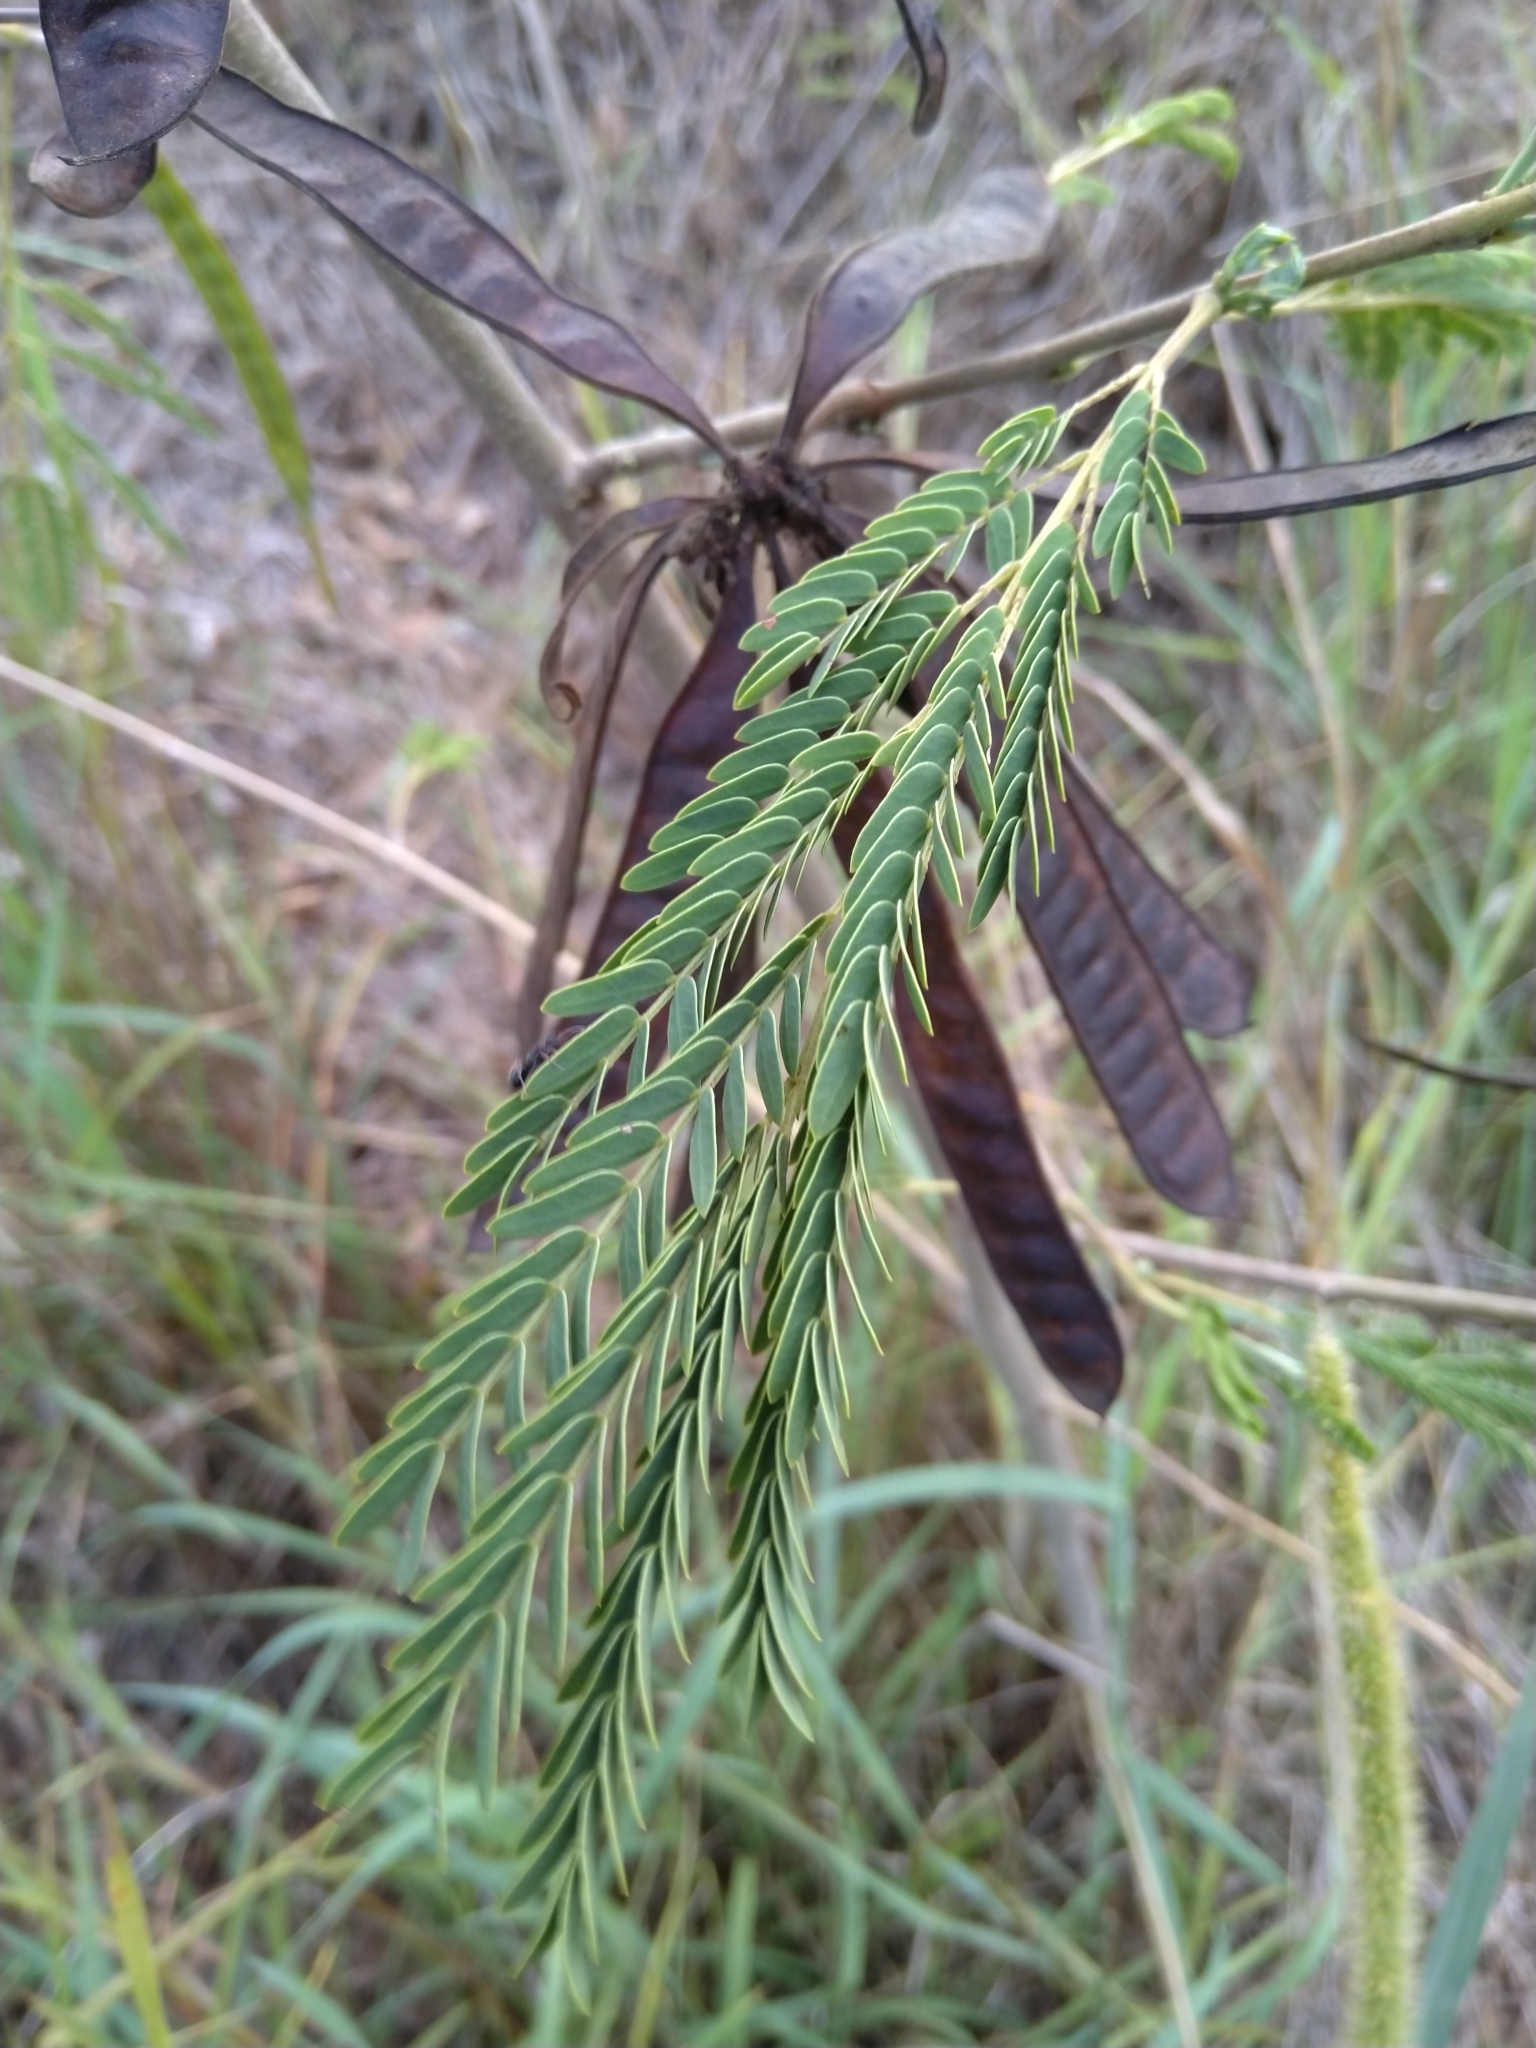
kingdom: Plantae
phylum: Tracheophyta
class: Magnoliopsida
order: Fabales
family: Fabaceae
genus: Leucaena
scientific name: Leucaena leucocephala
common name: White leadtree
